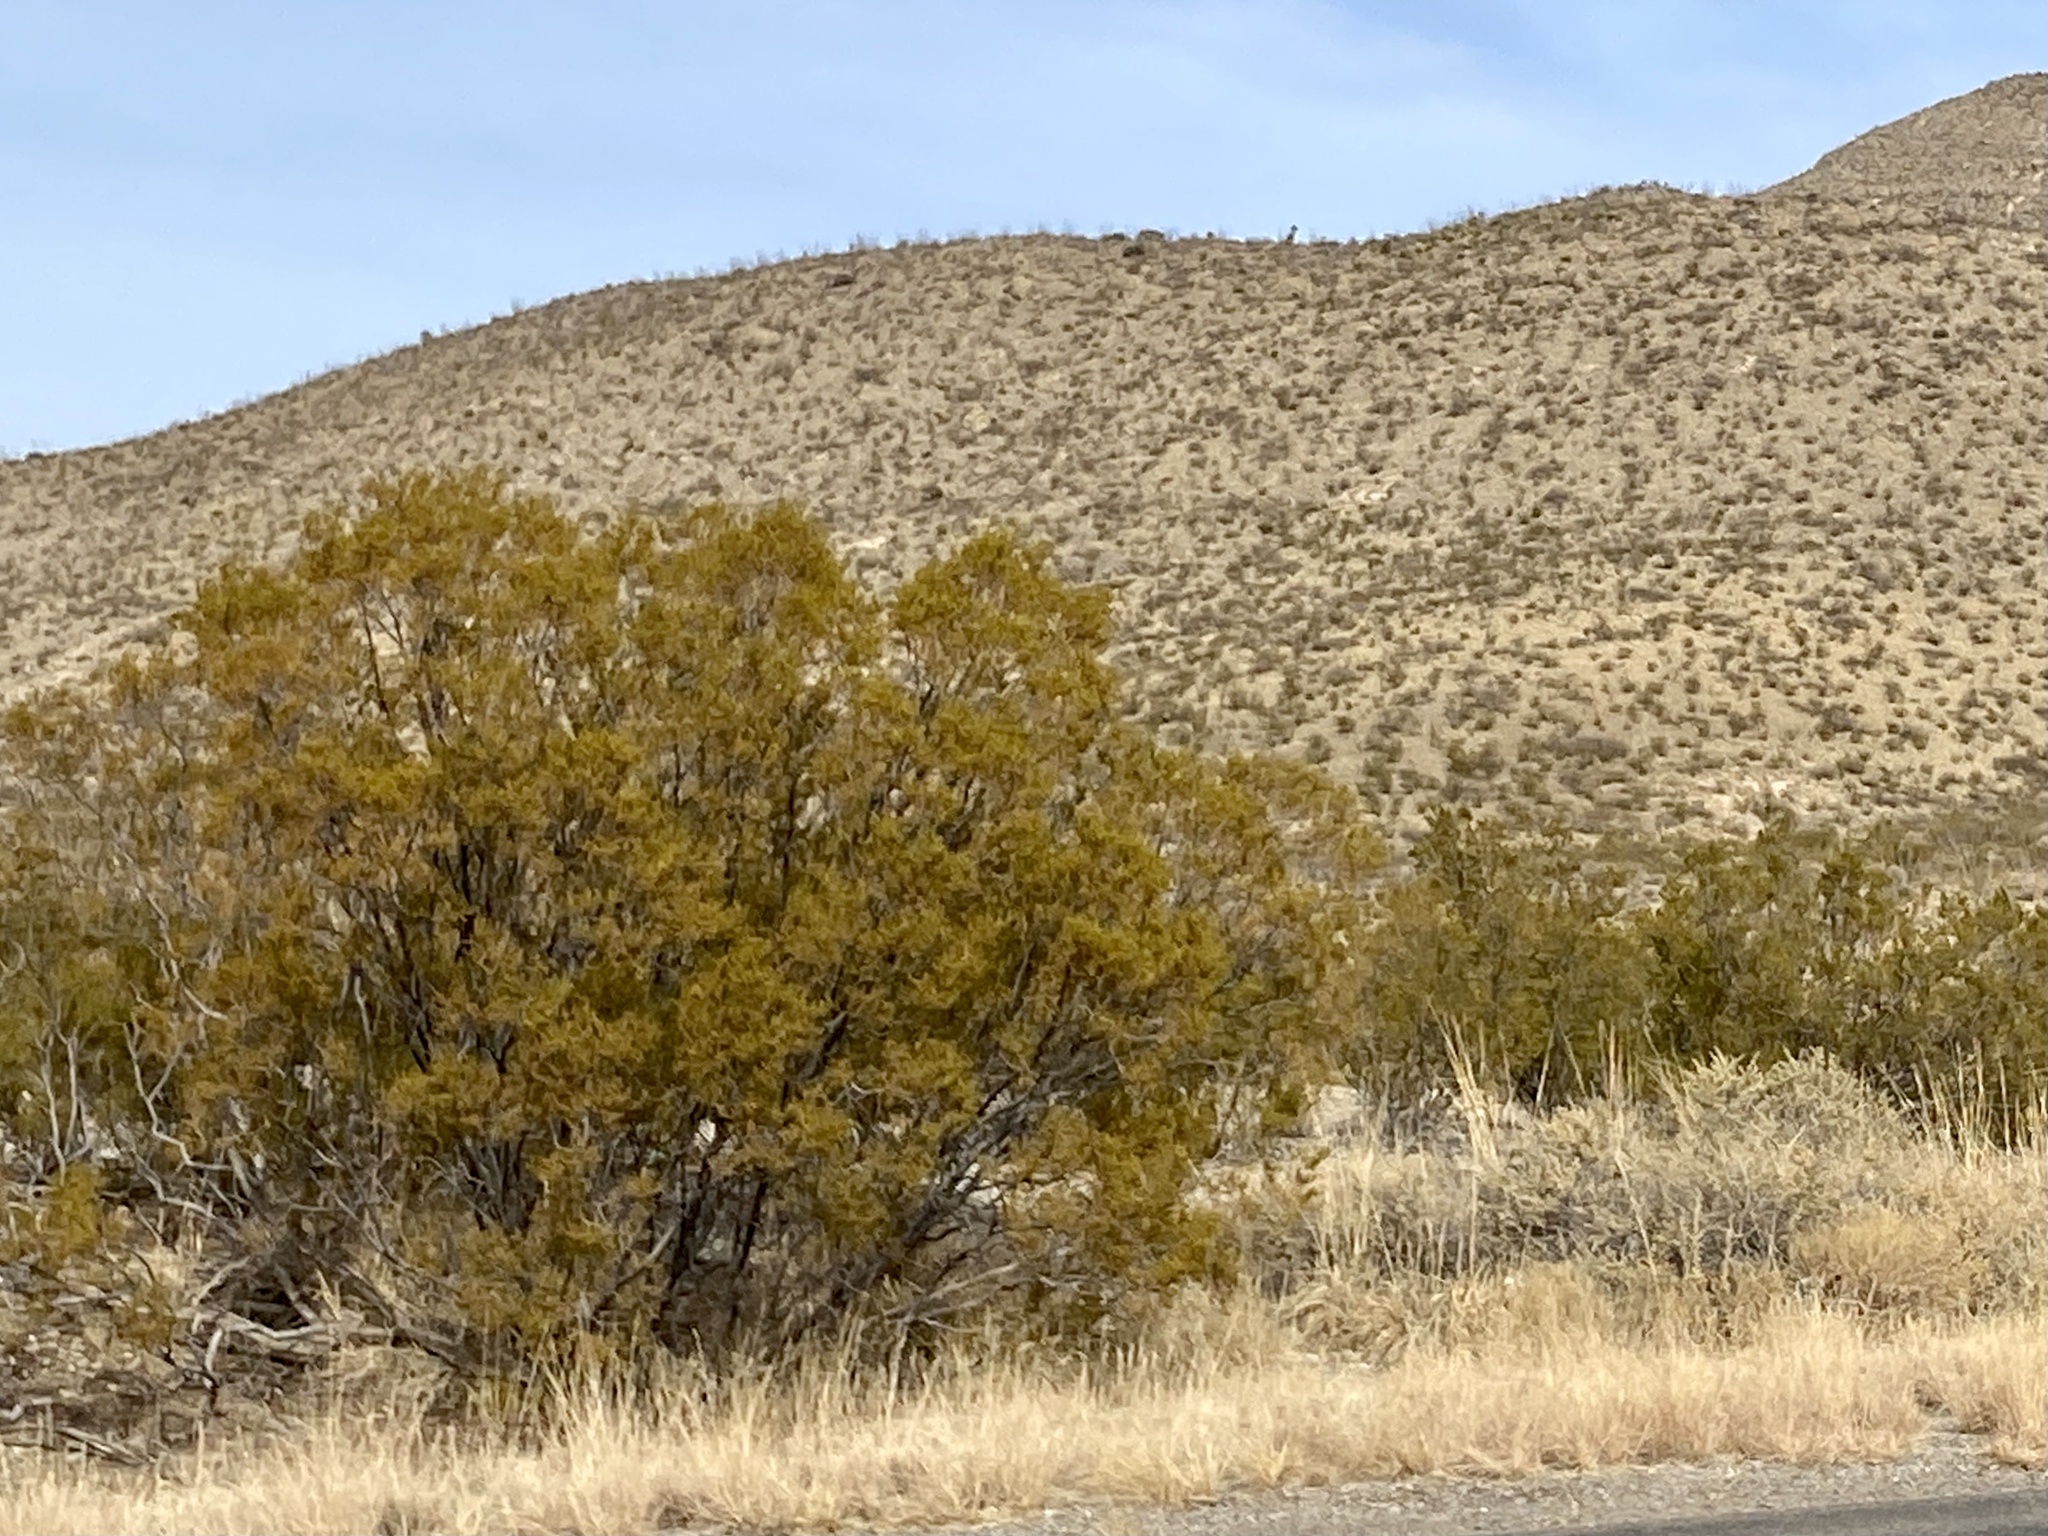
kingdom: Plantae
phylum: Tracheophyta
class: Magnoliopsida
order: Zygophyllales
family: Zygophyllaceae
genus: Larrea
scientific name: Larrea tridentata
